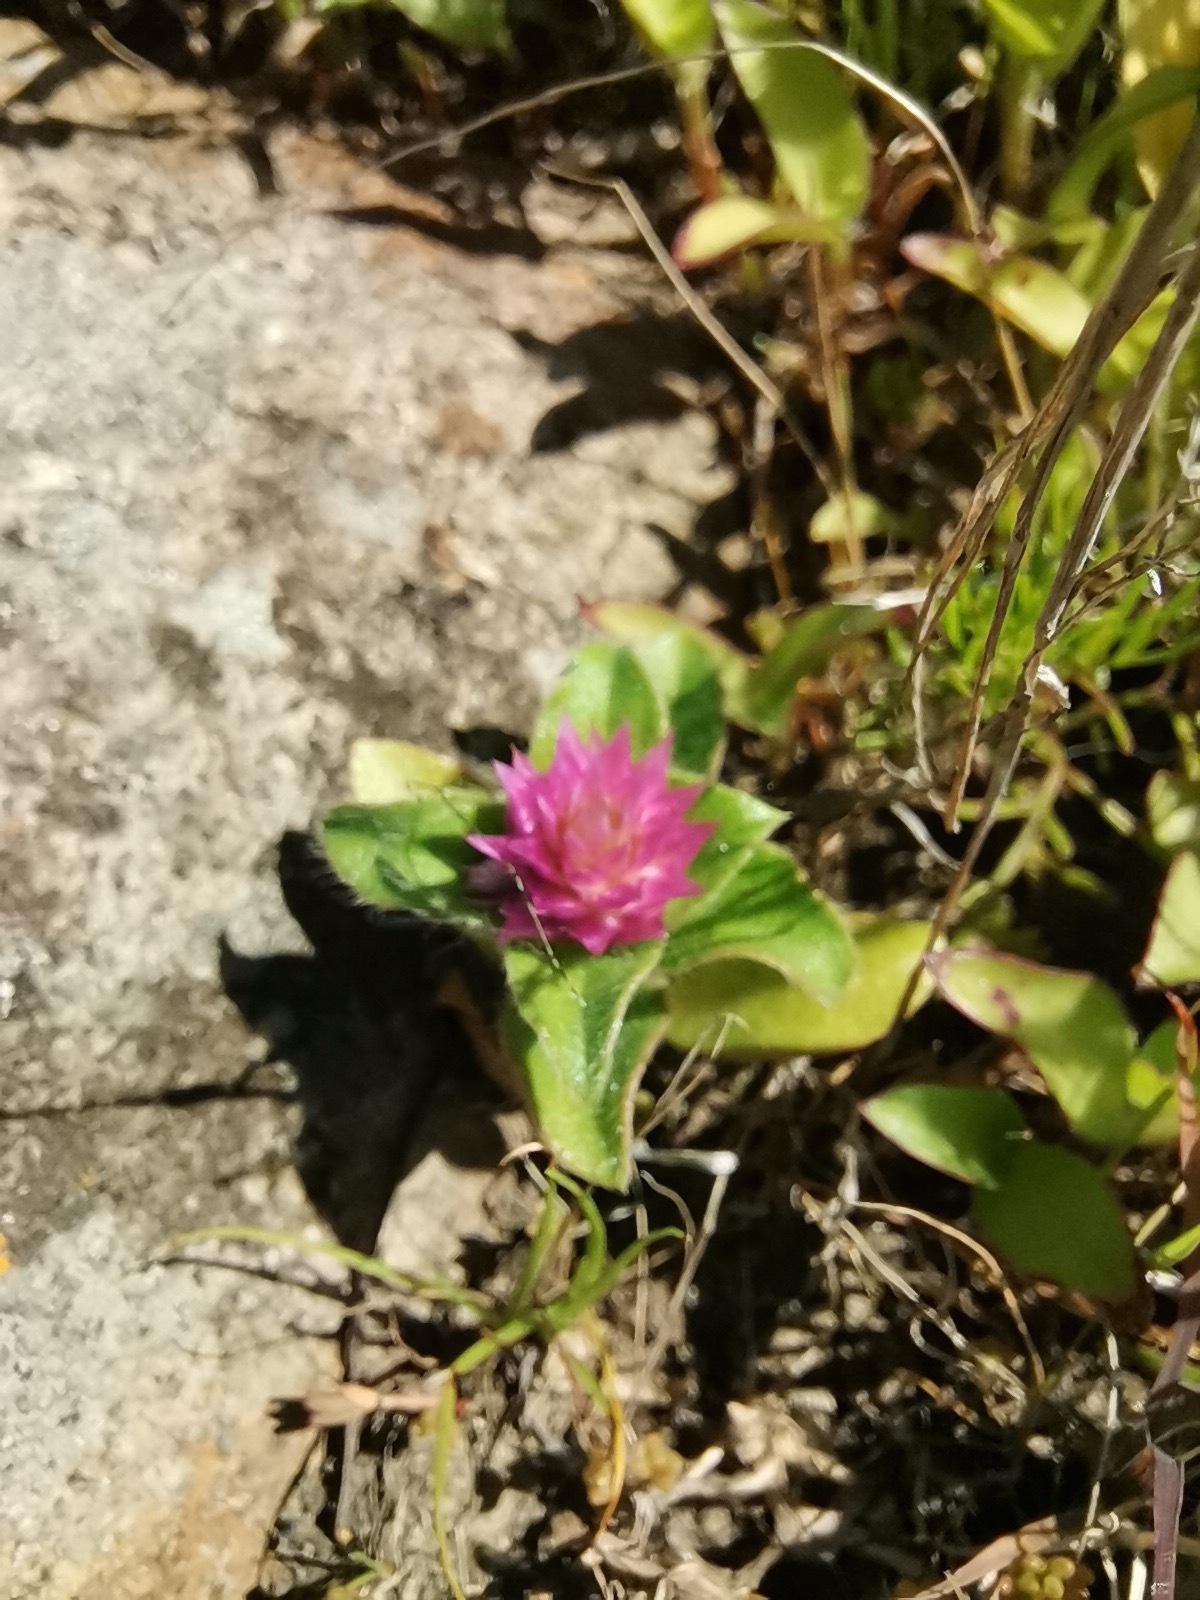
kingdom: Plantae
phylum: Tracheophyta
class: Magnoliopsida
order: Caryophyllales
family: Amaranthaceae
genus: Gomphrena
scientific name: Gomphrena nitida
